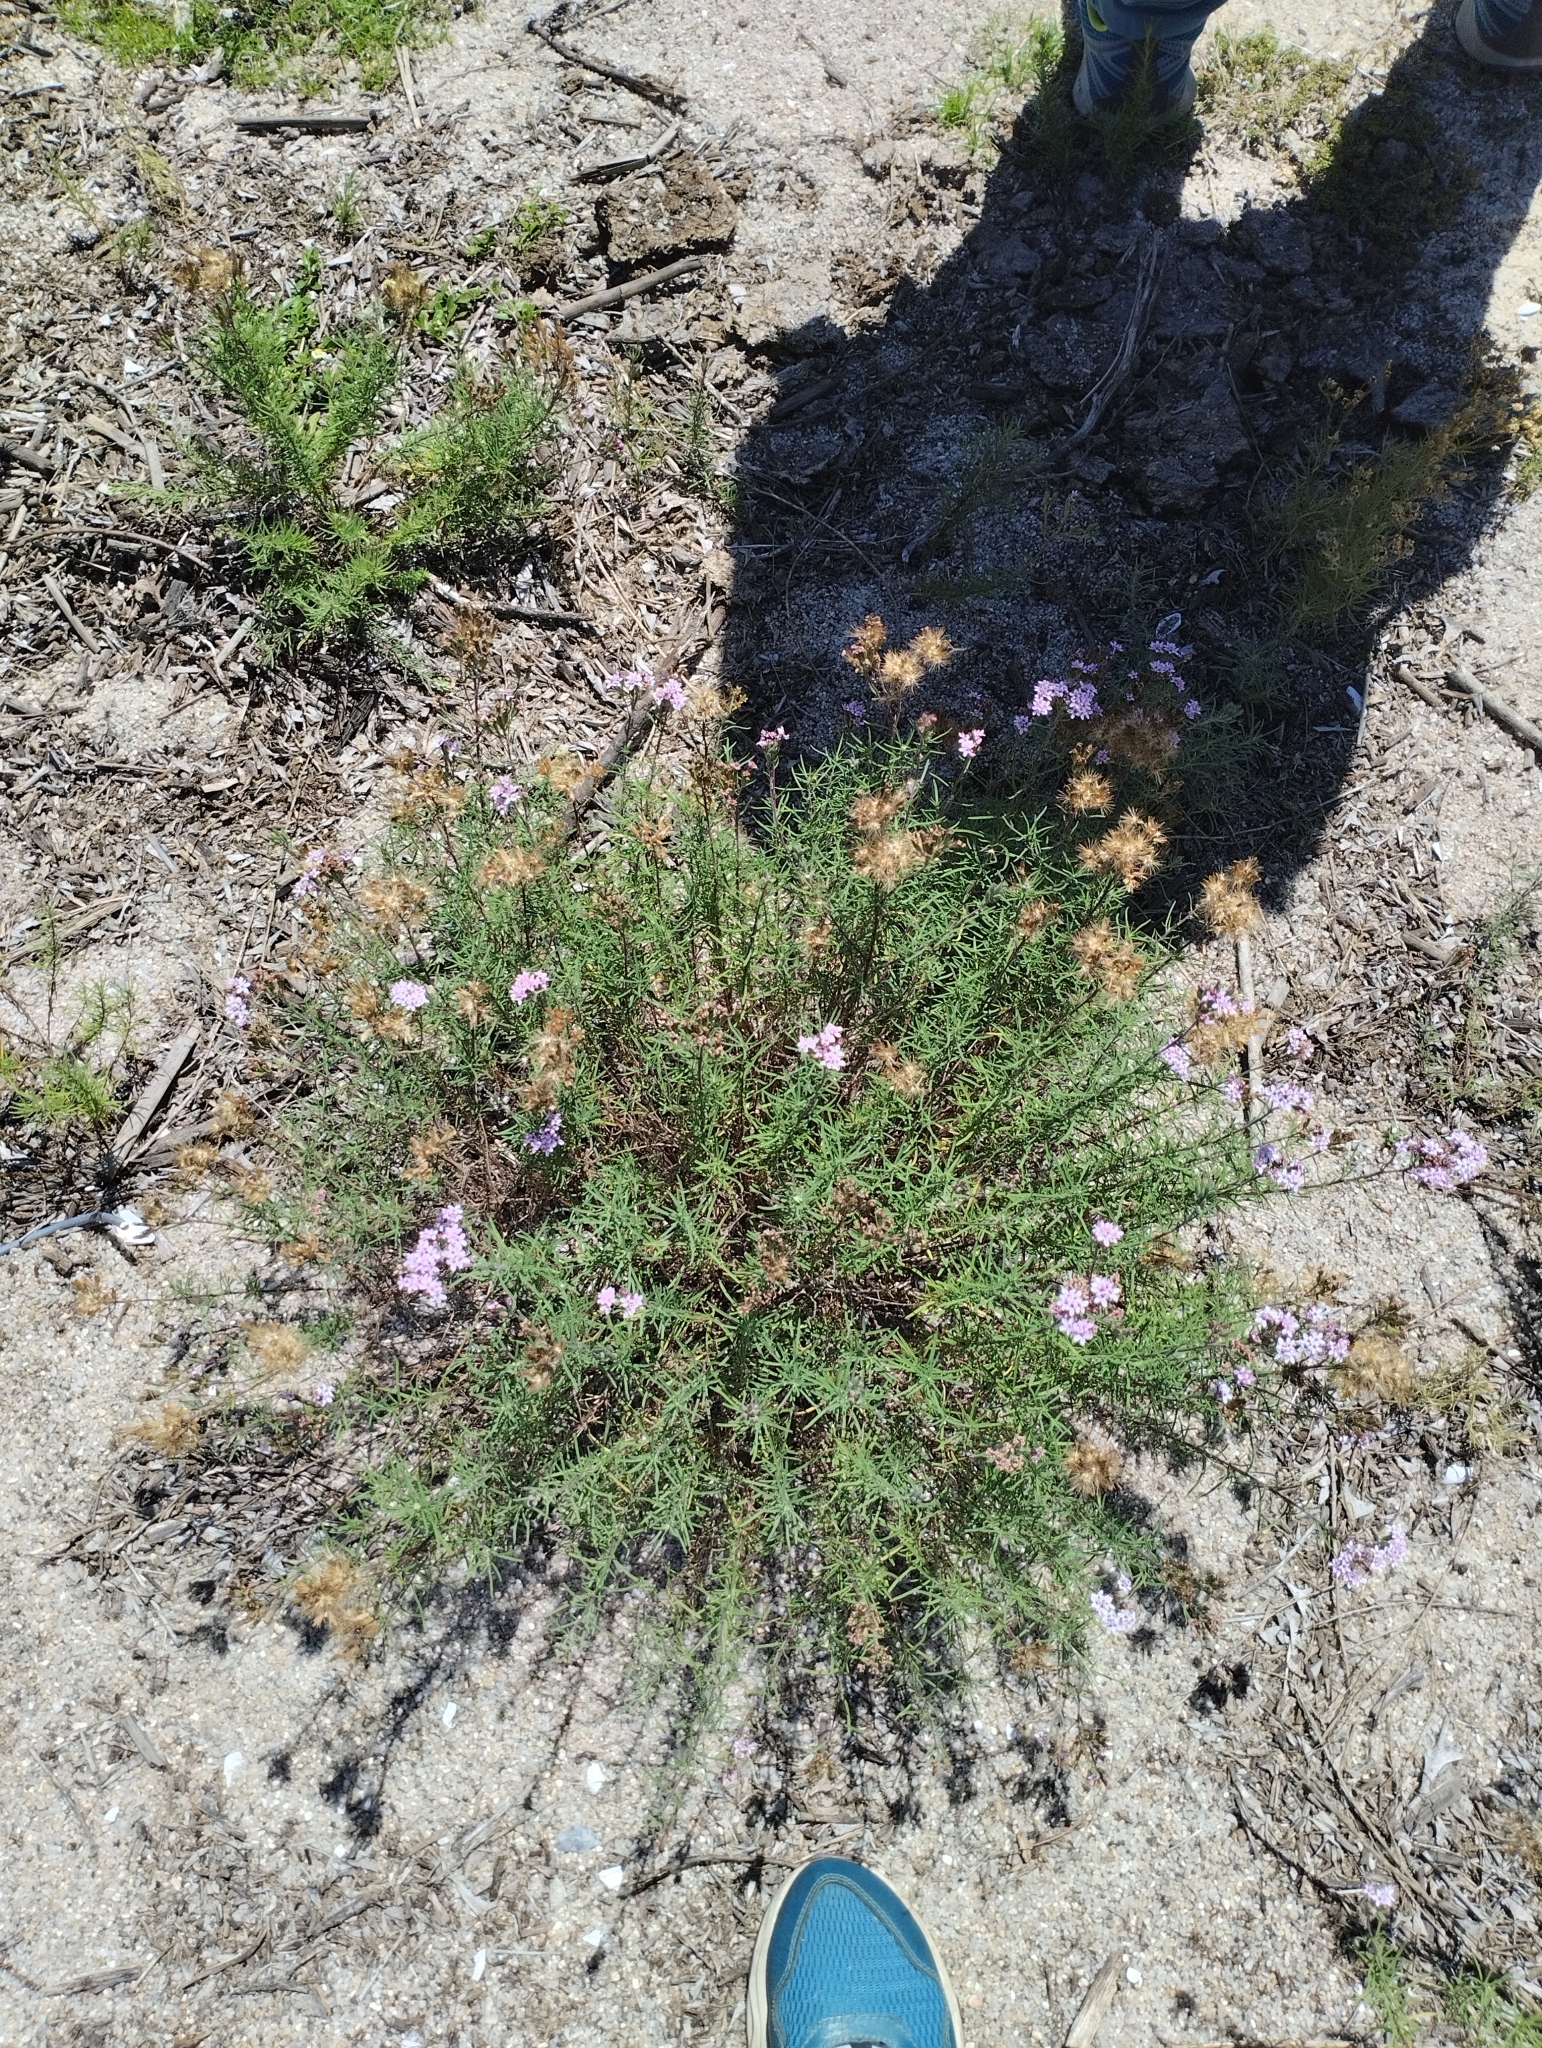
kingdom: Plantae
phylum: Tracheophyta
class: Magnoliopsida
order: Asterales
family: Asteraceae
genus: Stevia
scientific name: Stevia satureifolia
